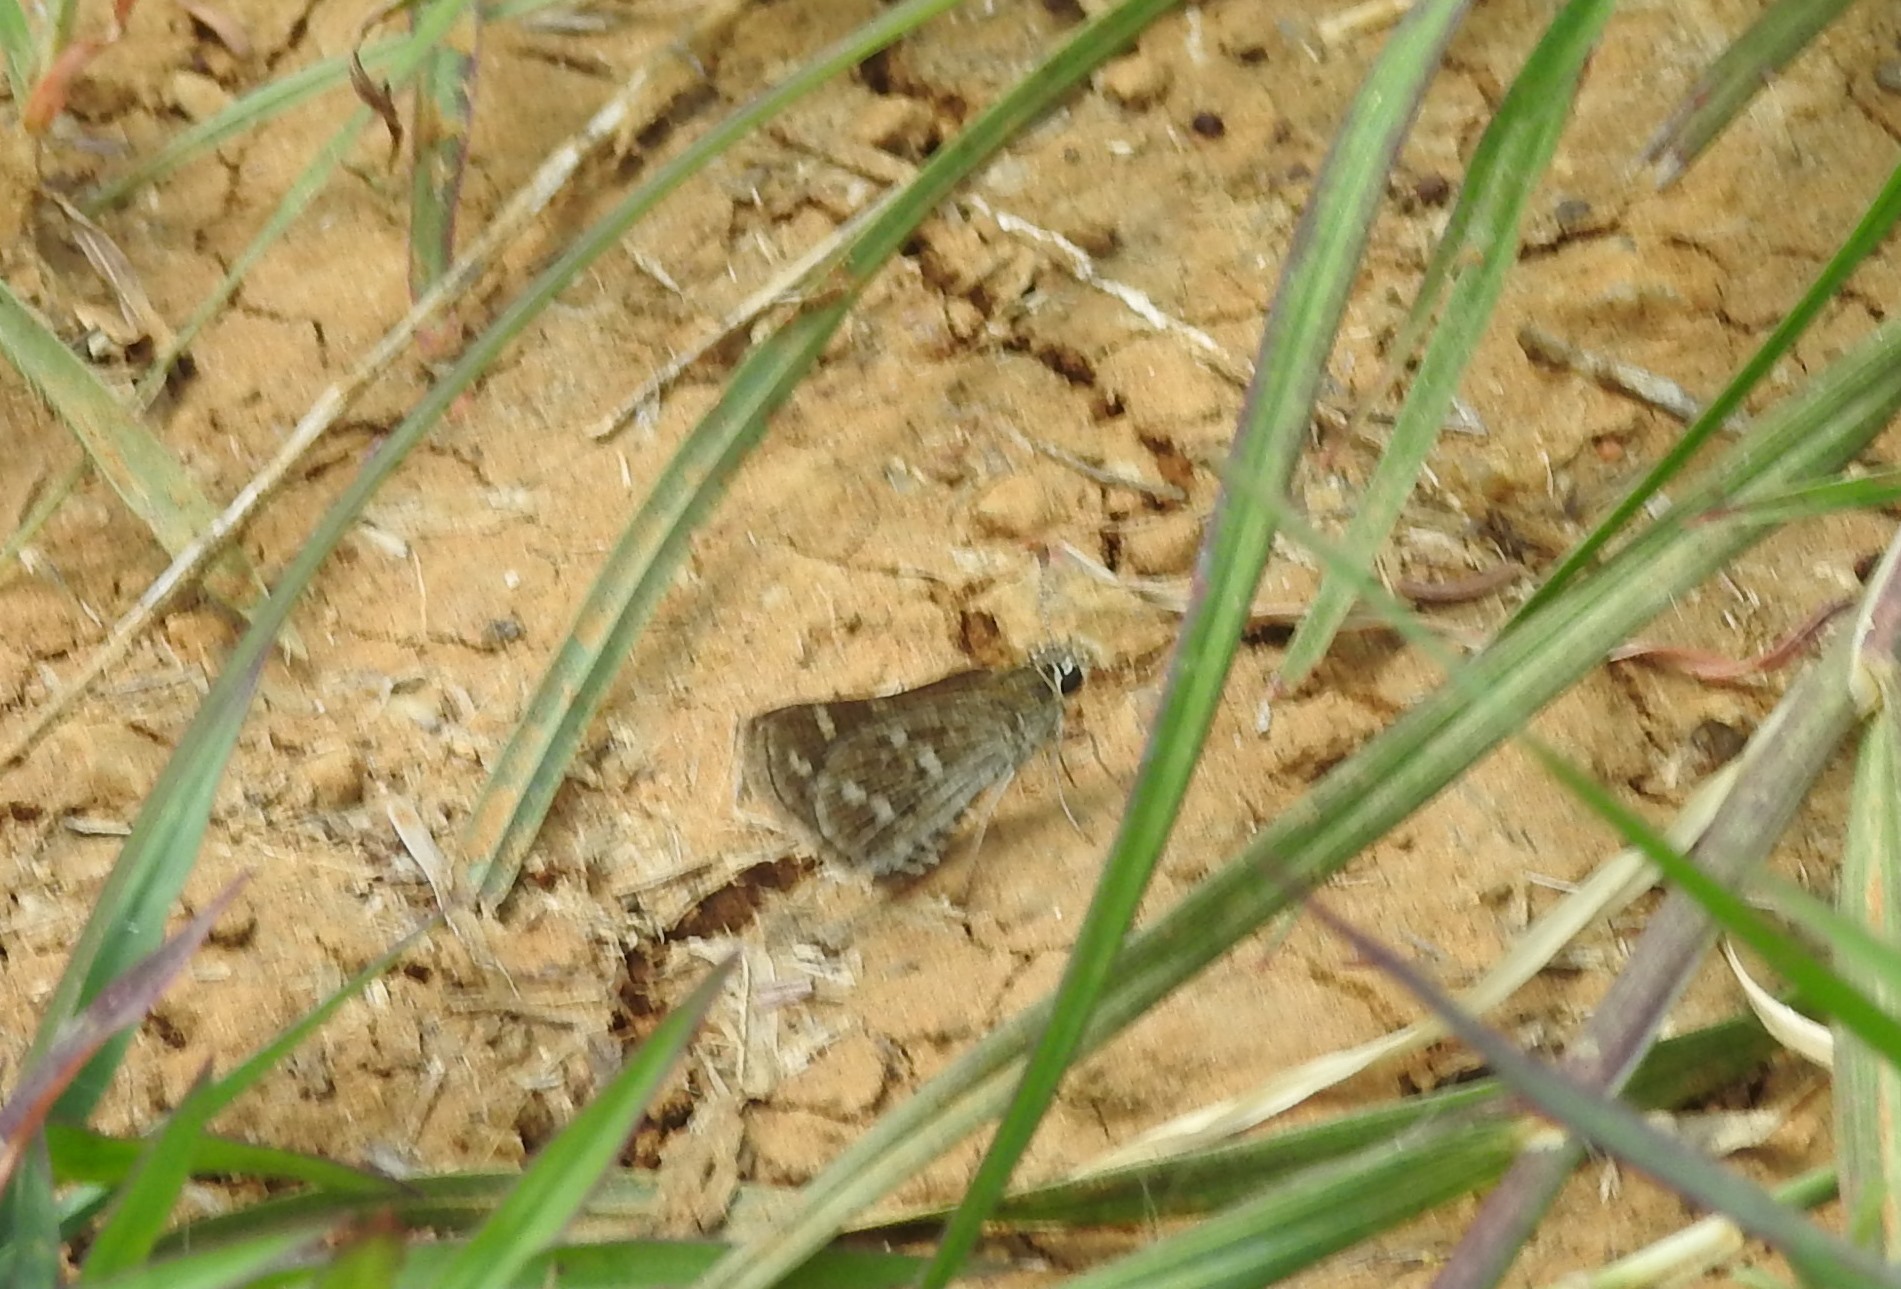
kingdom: Animalia
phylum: Arthropoda
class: Insecta
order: Lepidoptera
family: Hesperiidae
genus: Taractrocera
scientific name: Taractrocera maevius
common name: Common grass-dart
